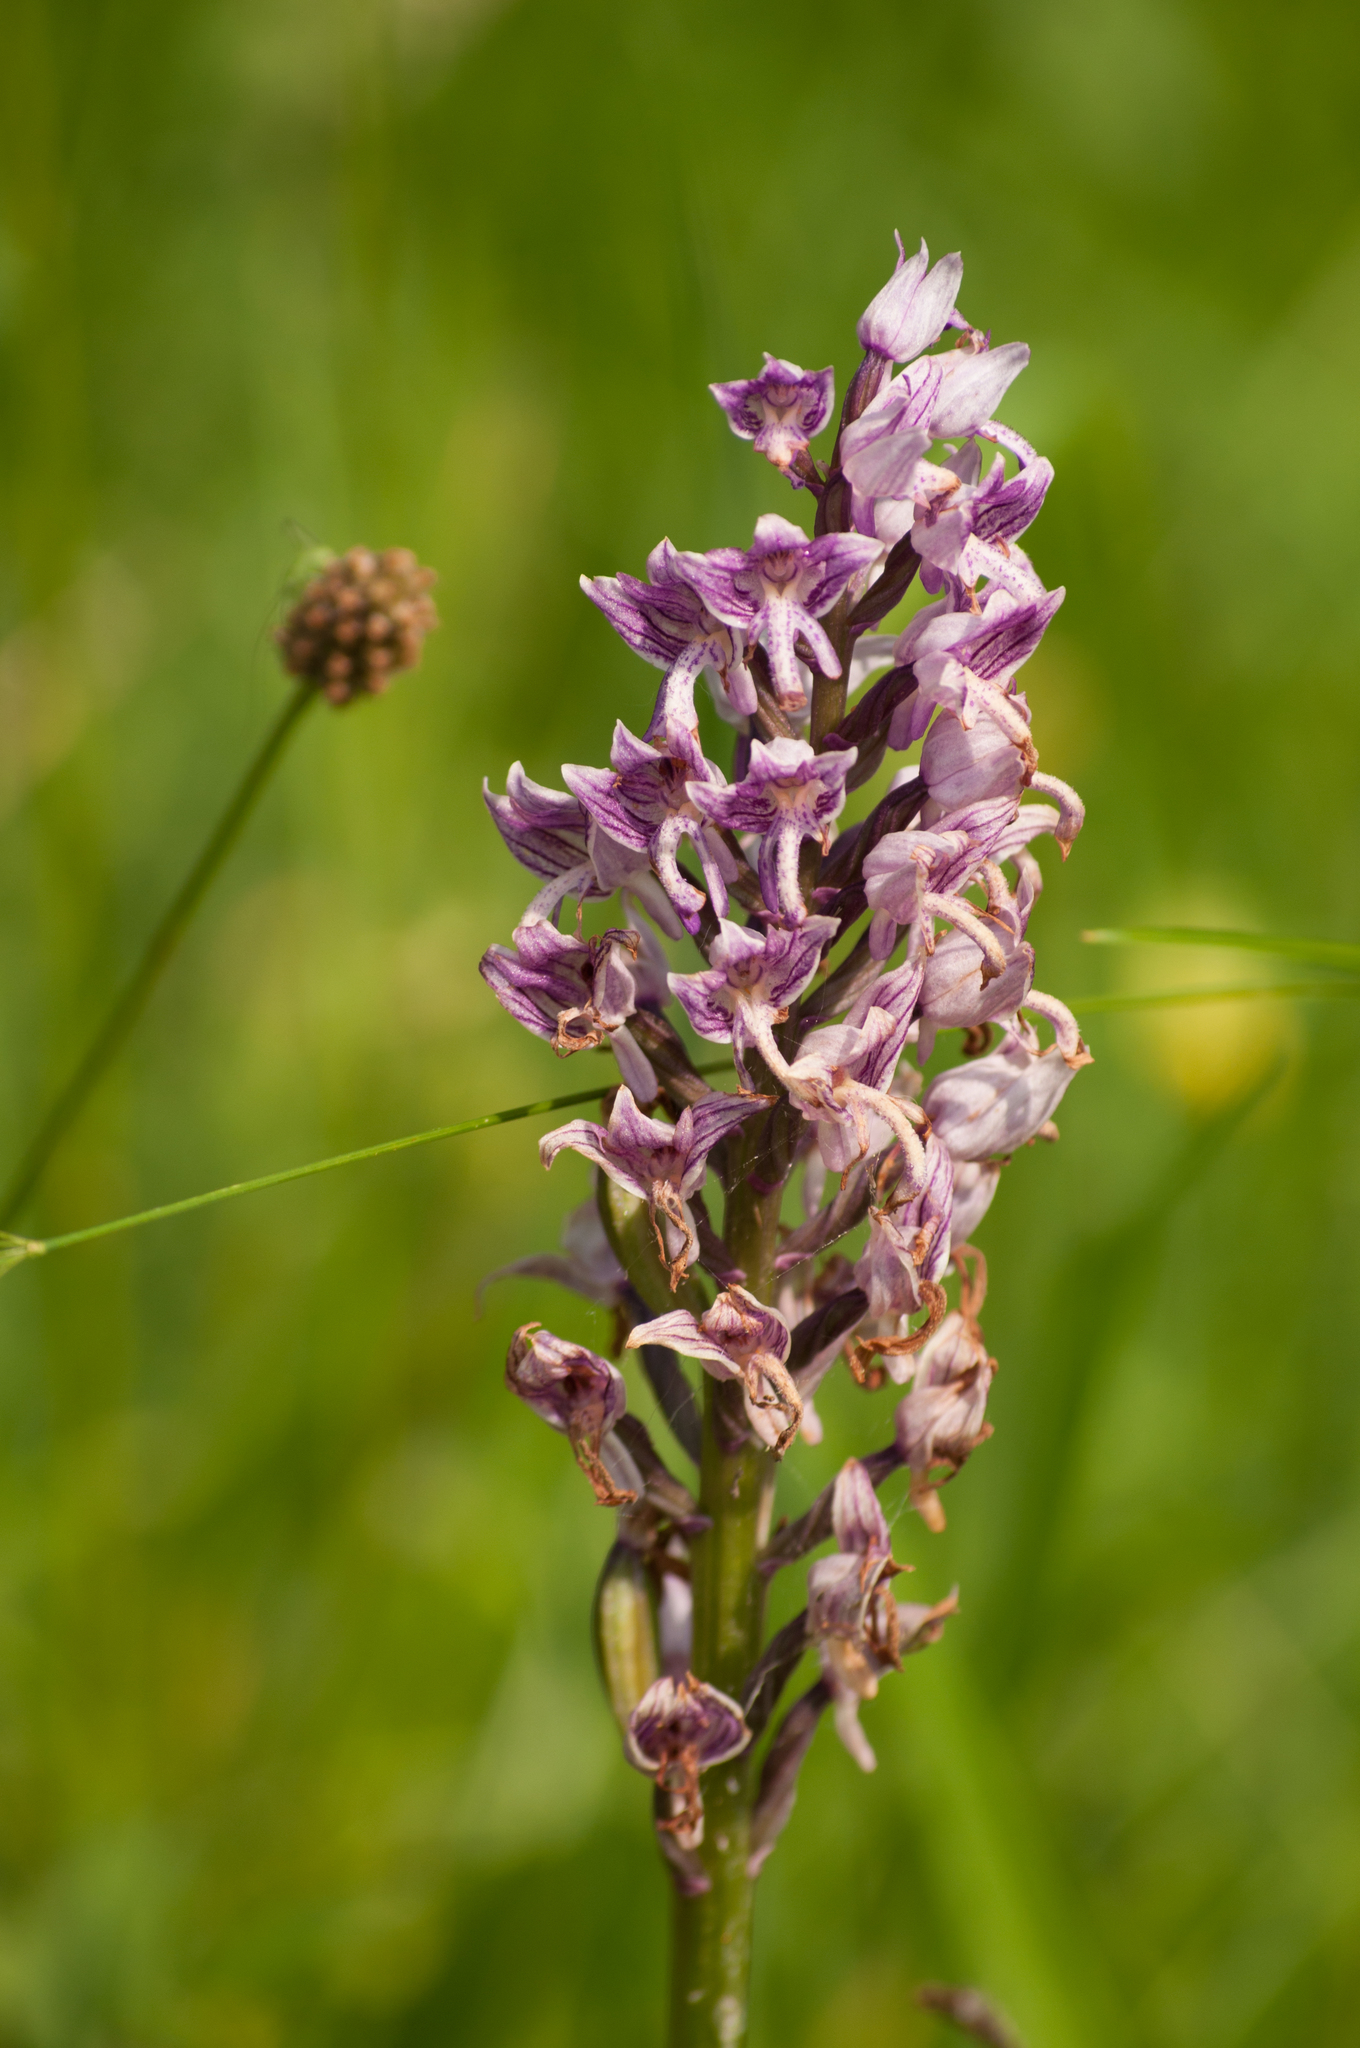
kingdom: Plantae
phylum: Tracheophyta
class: Liliopsida
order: Asparagales
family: Orchidaceae
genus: Orchis
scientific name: Orchis militaris
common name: Military orchid
